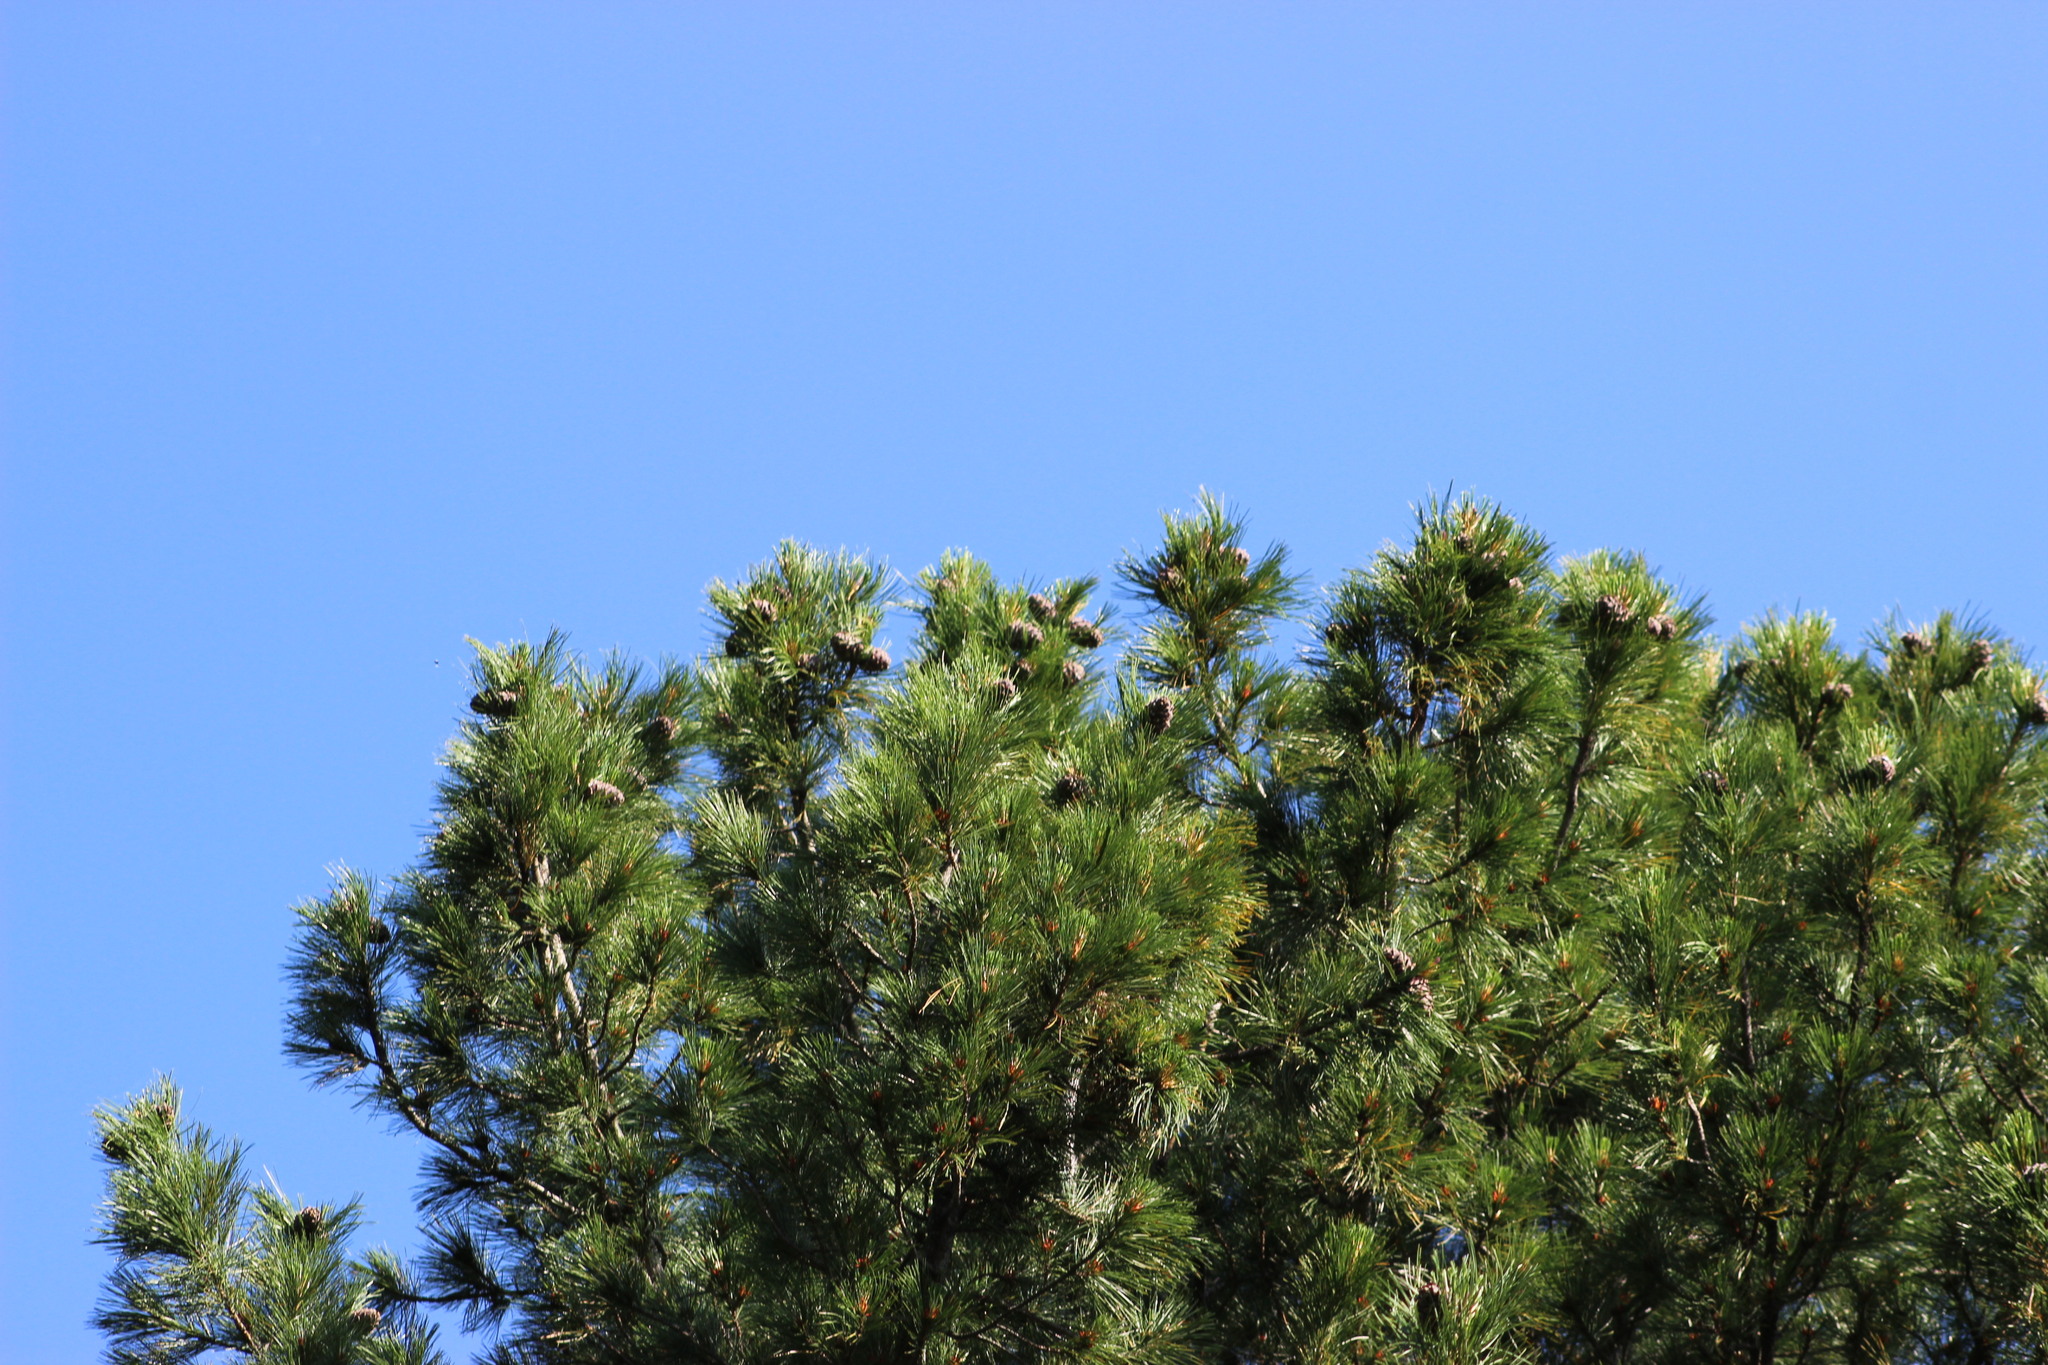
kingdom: Plantae
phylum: Tracheophyta
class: Pinopsida
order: Pinales
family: Pinaceae
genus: Pinus
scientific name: Pinus sibirica
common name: Siberian pine
